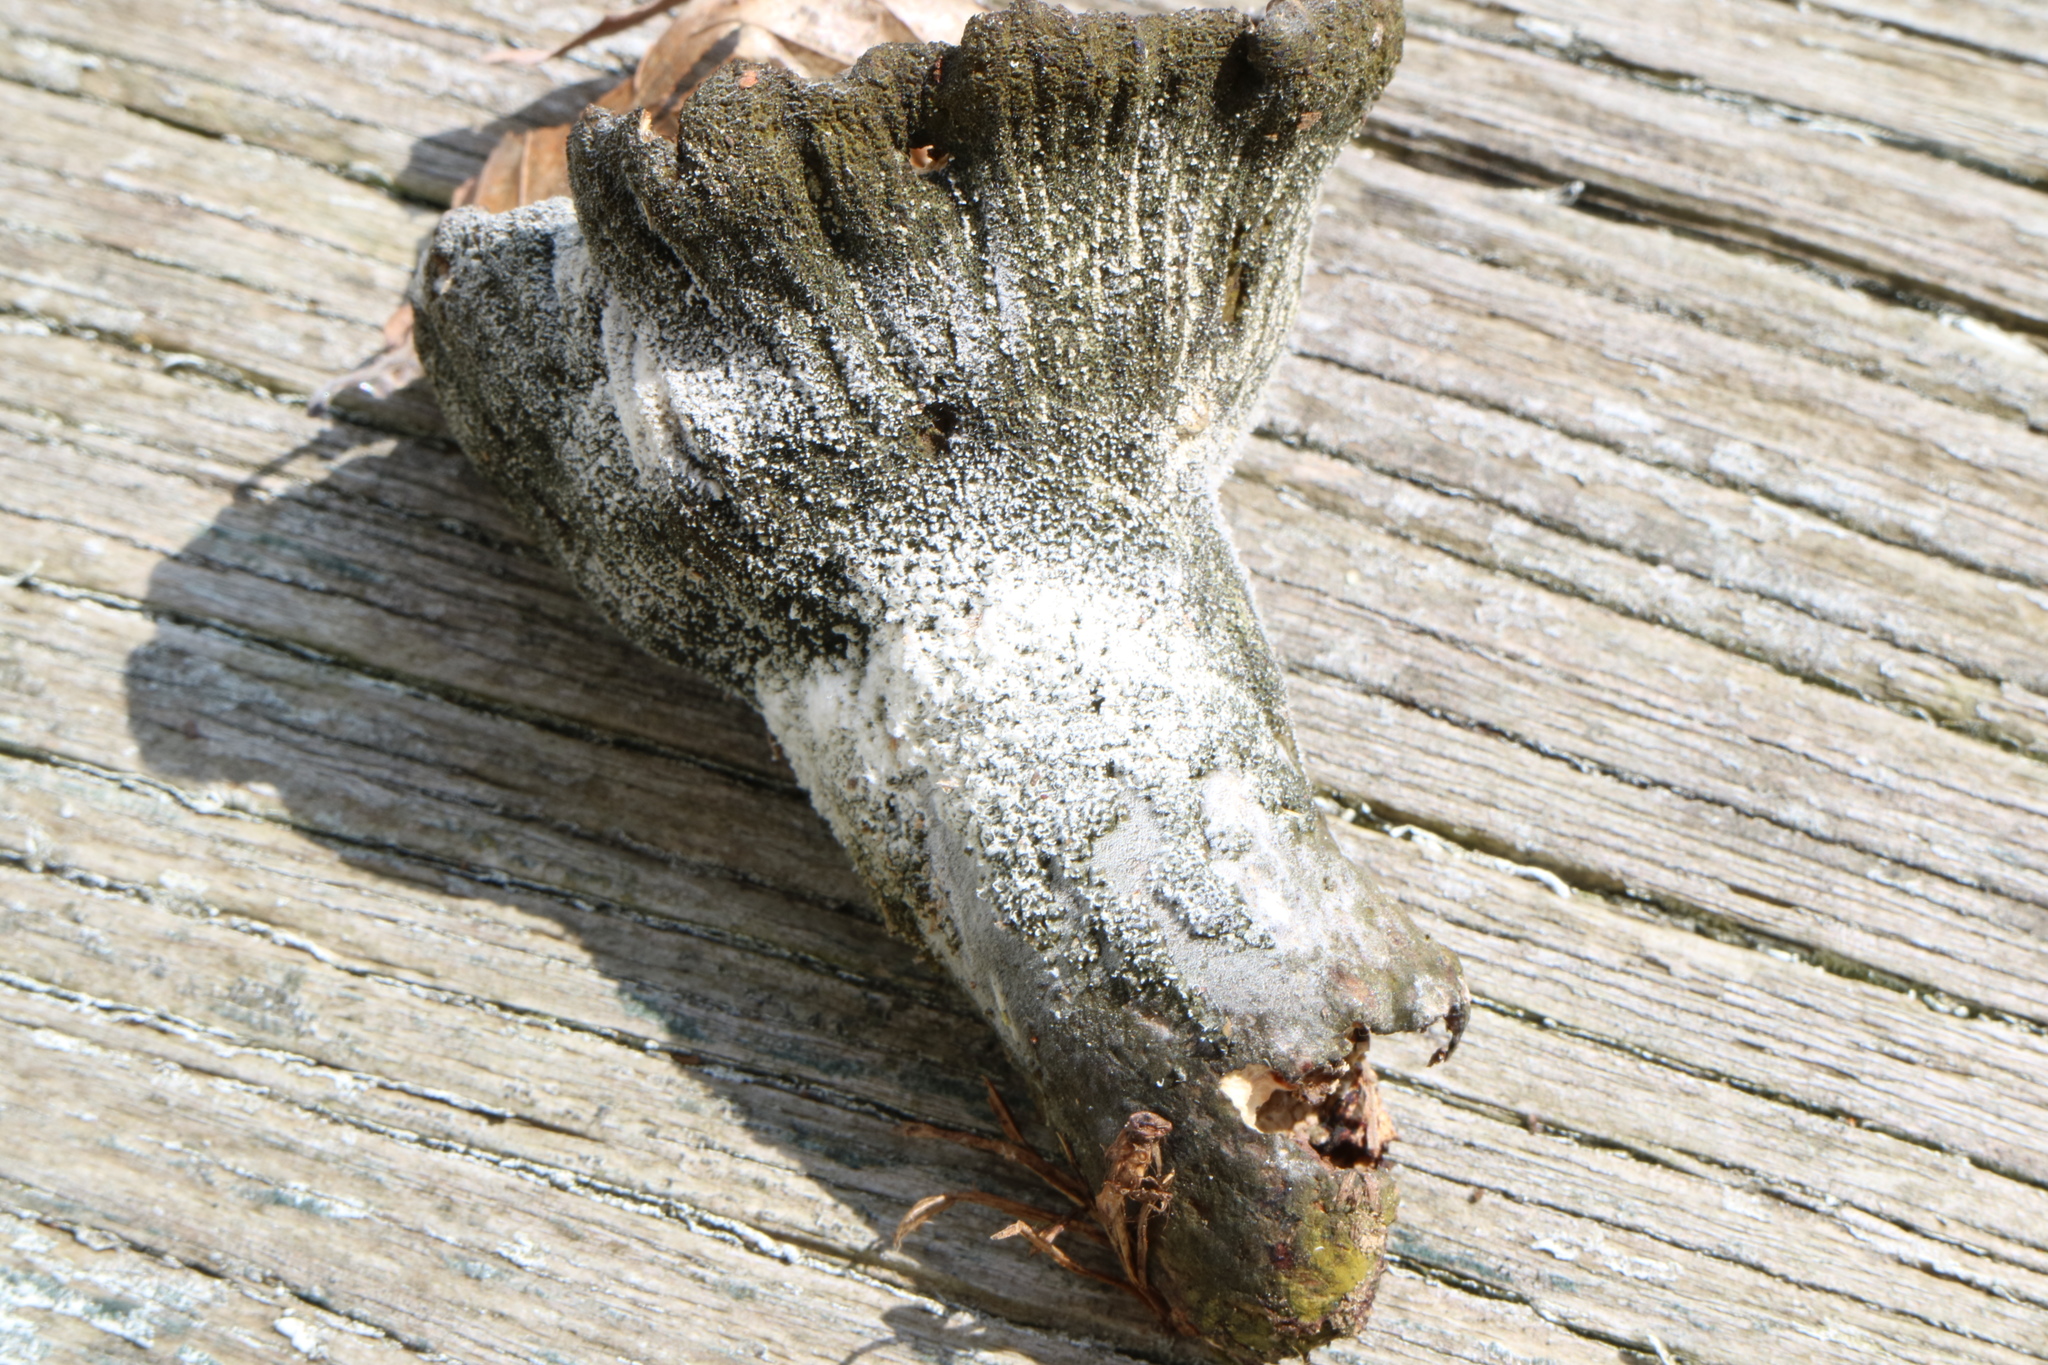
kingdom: Fungi
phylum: Ascomycota
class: Sordariomycetes
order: Hypocreales
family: Hypocreaceae
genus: Hypomyces
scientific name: Hypomyces luteovirens
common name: Yellow-green russula mold
